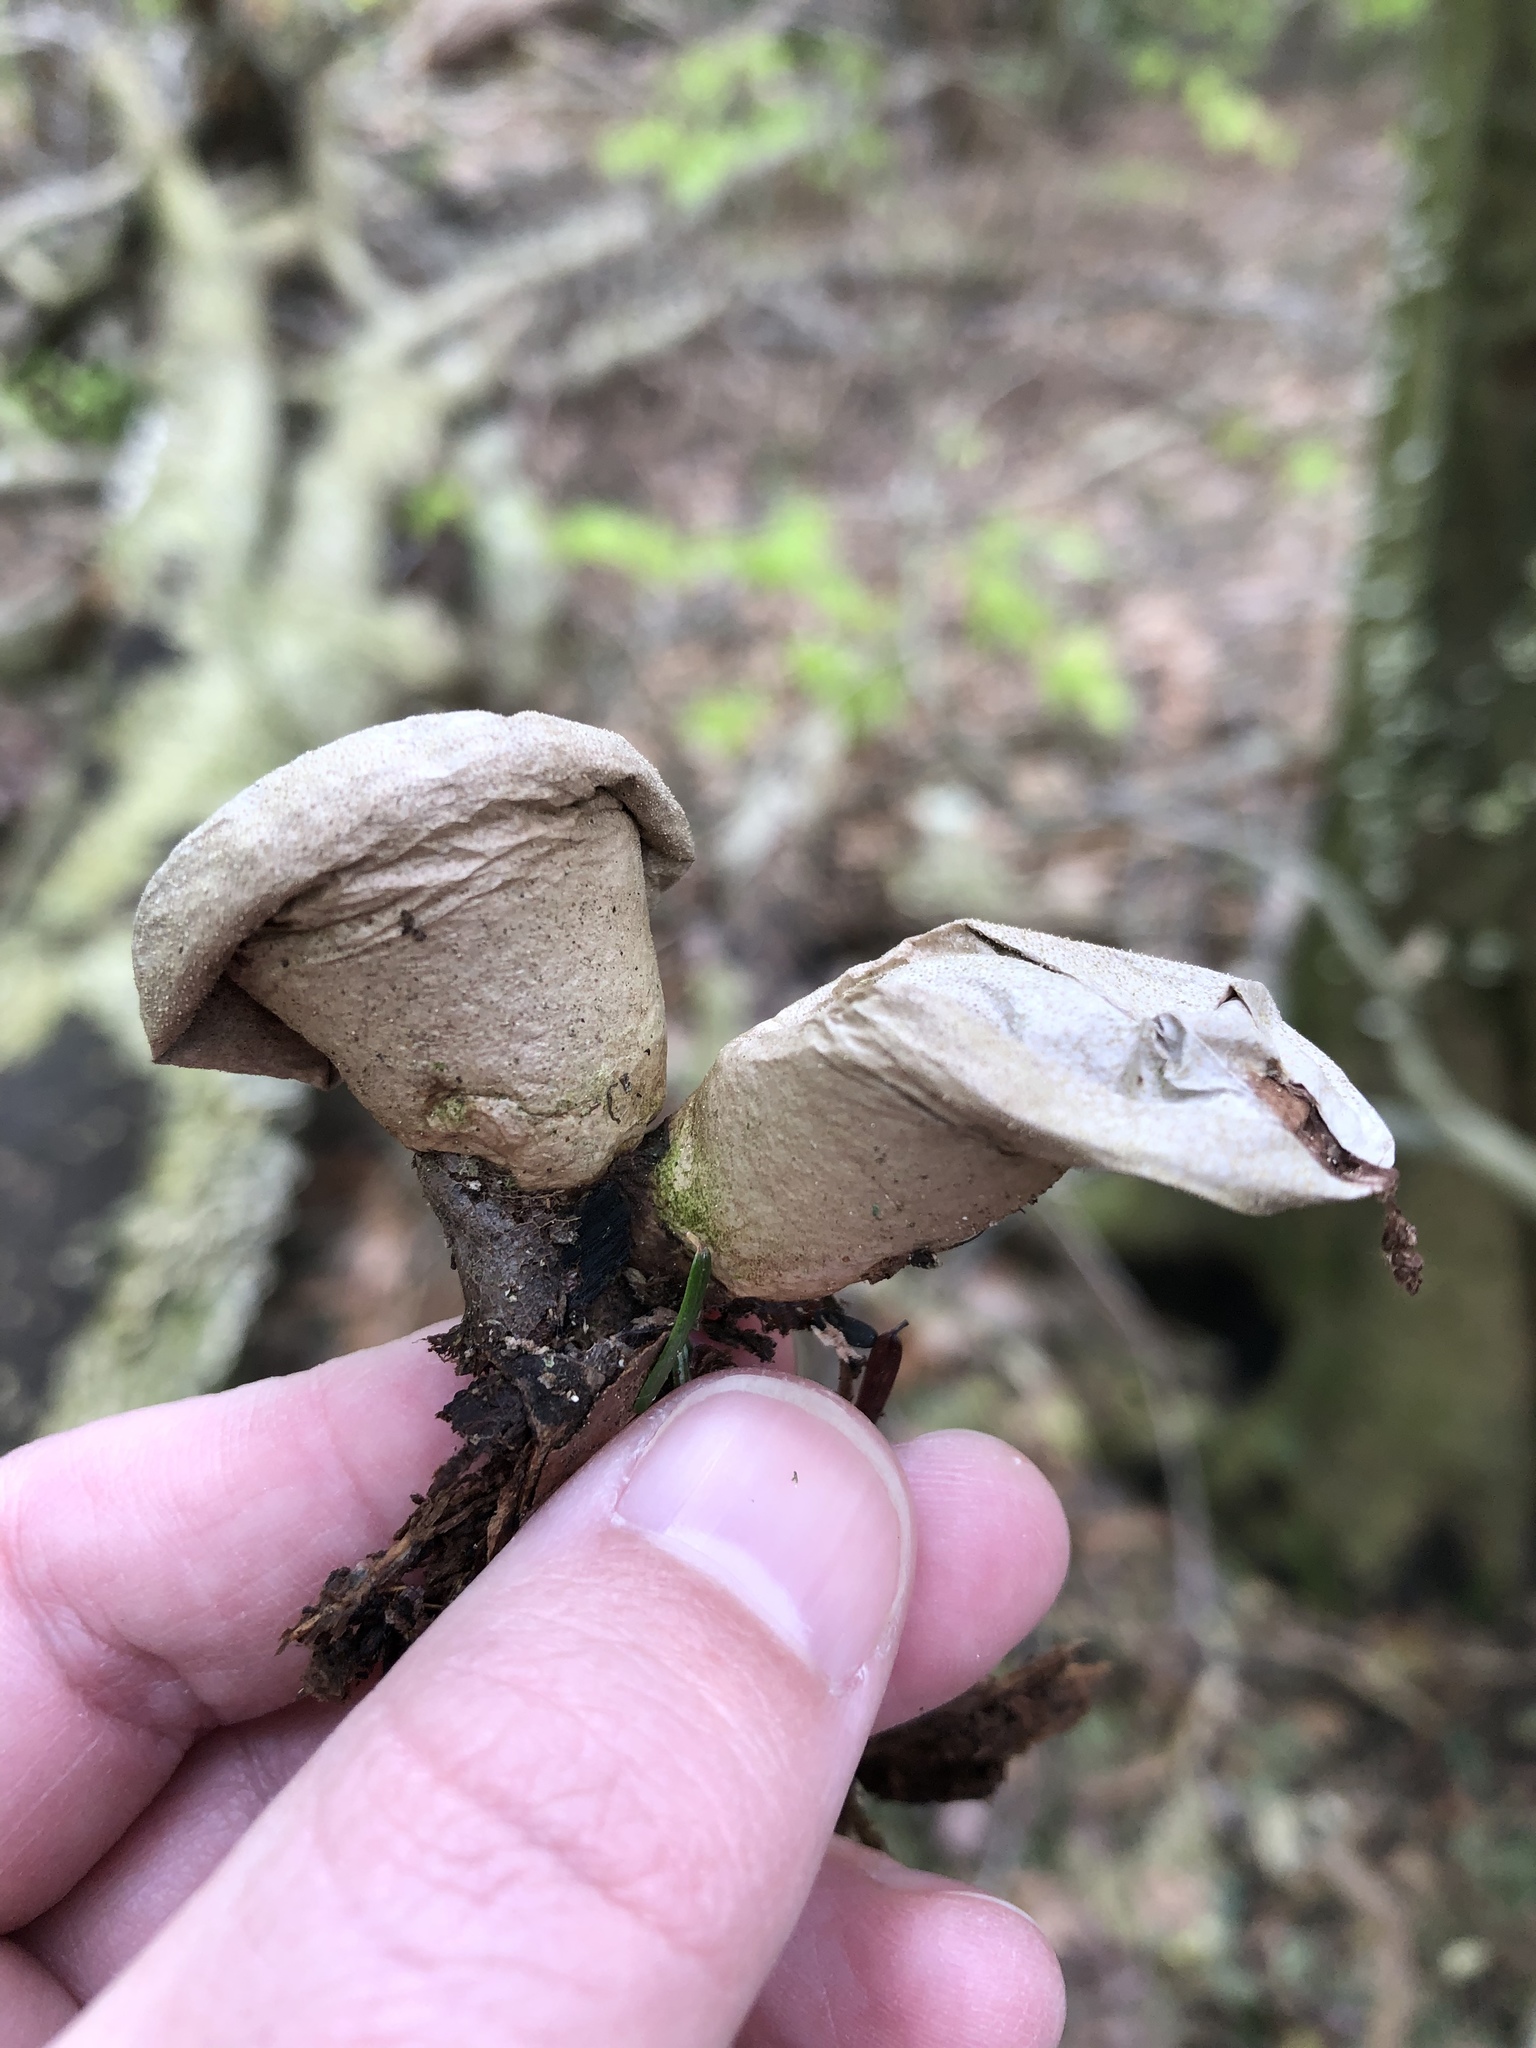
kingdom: Fungi
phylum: Basidiomycota
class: Agaricomycetes
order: Agaricales
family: Lycoperdaceae
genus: Apioperdon
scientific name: Apioperdon pyriforme
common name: Pear-shaped puffball
